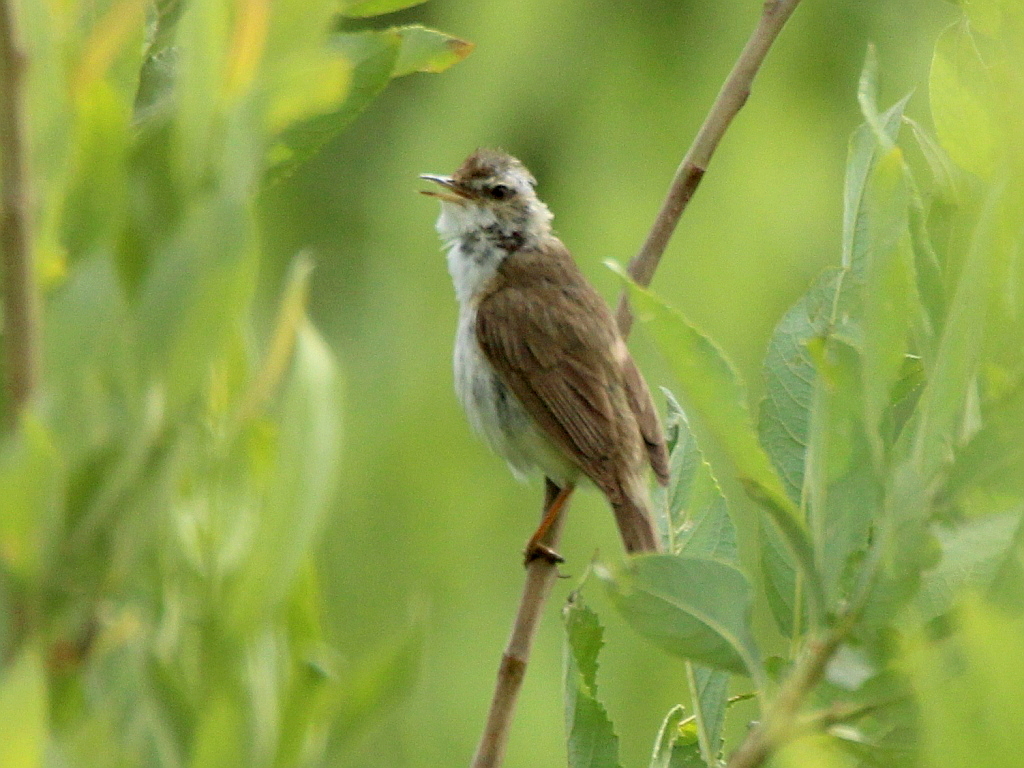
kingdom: Animalia
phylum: Chordata
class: Aves
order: Passeriformes
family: Acrocephalidae
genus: Acrocephalus
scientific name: Acrocephalus agricola
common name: Paddyfield warbler
